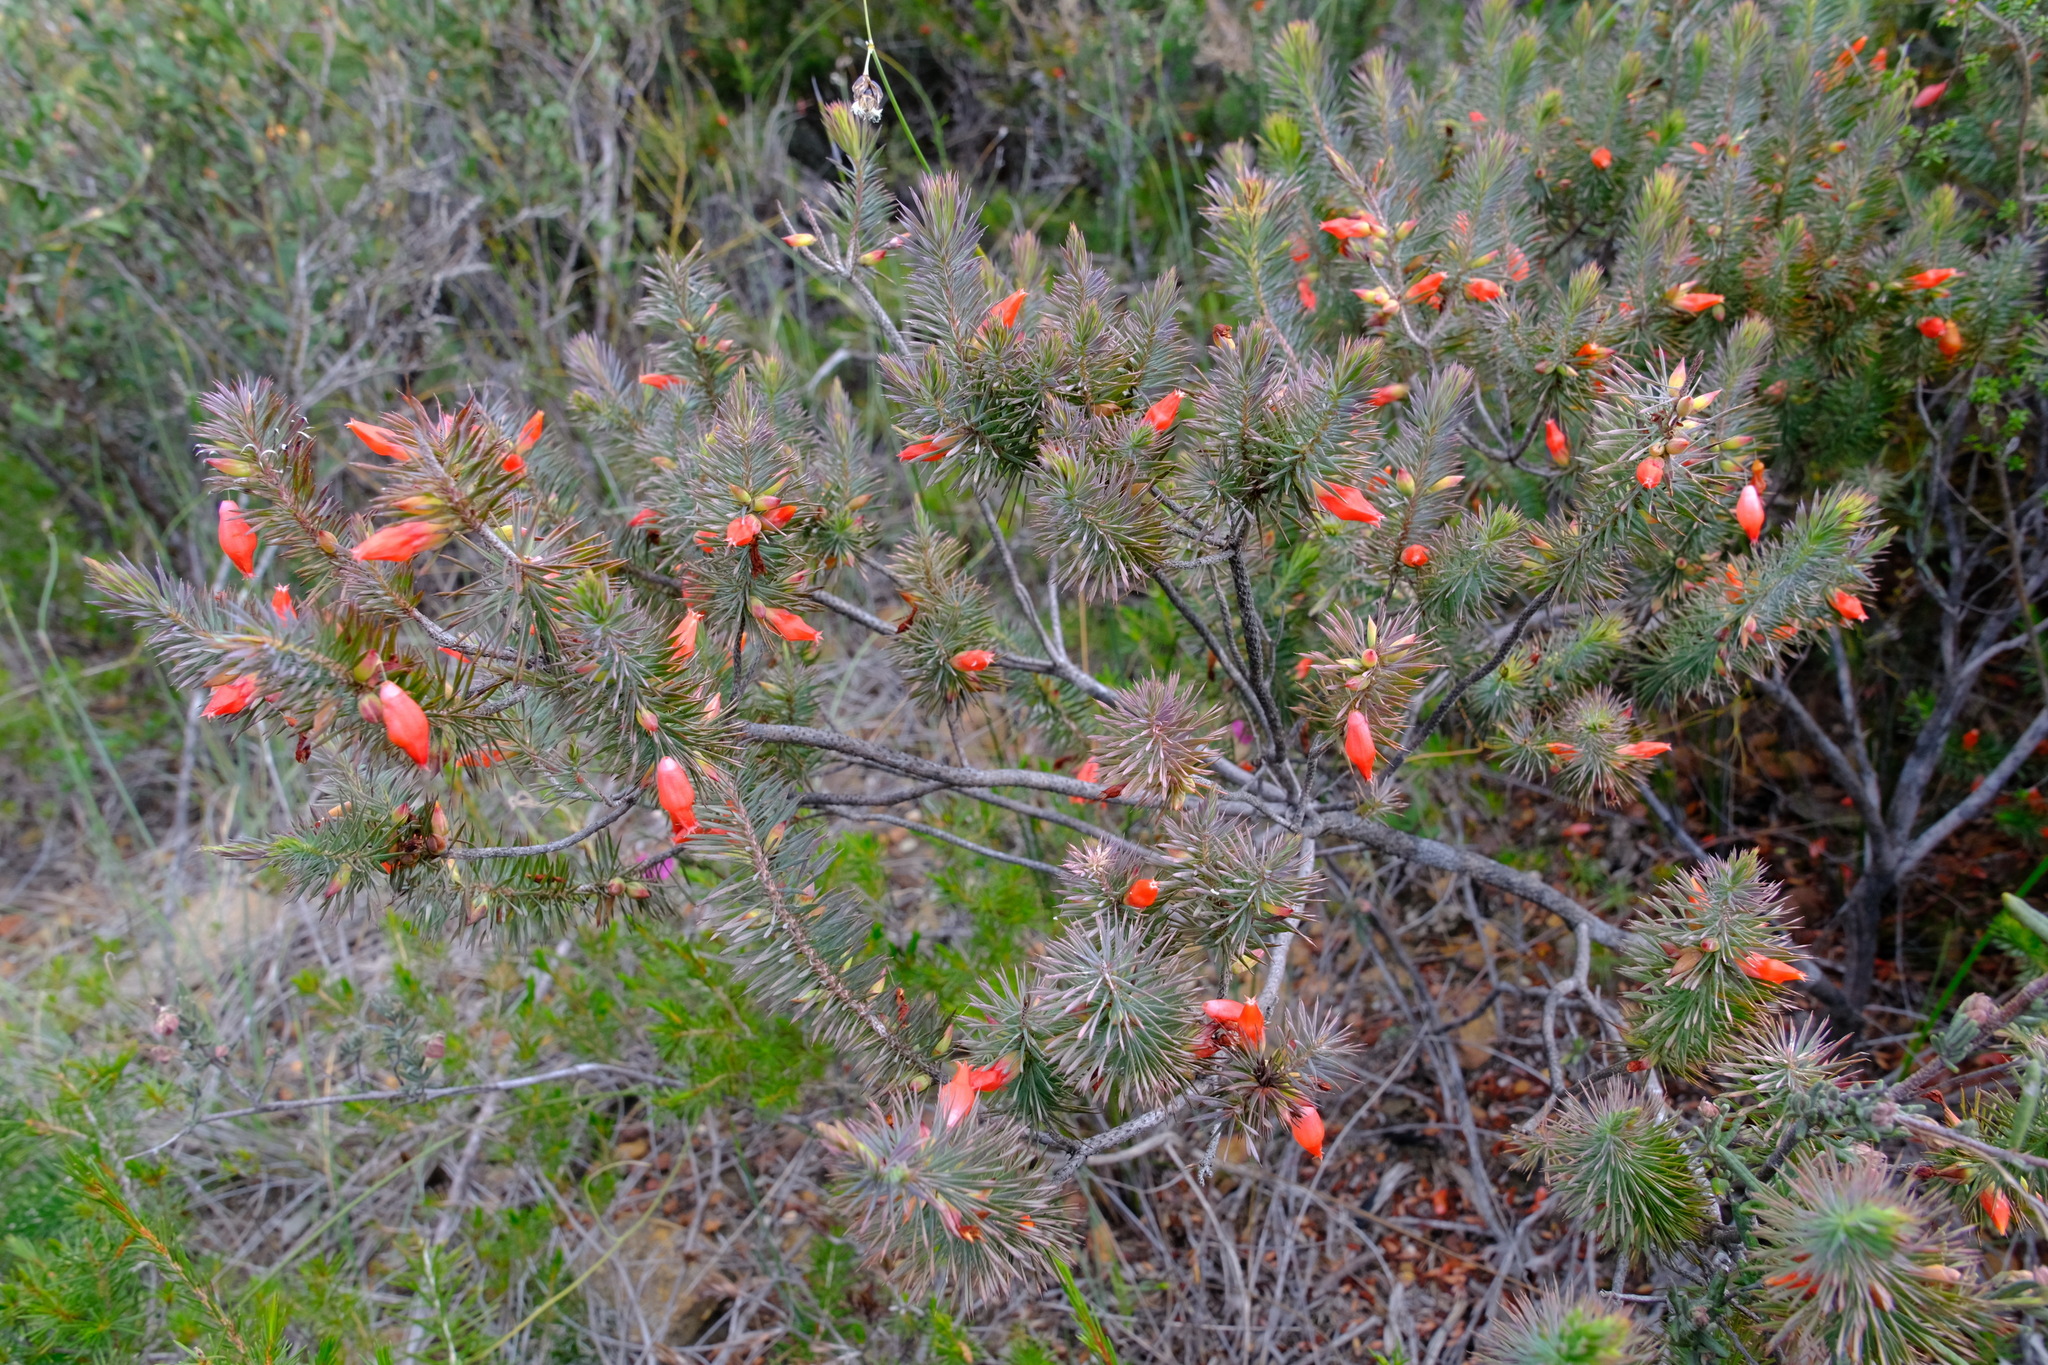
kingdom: Plantae
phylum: Tracheophyta
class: Magnoliopsida
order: Ericales
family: Ericaceae
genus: Styphelia
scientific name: Styphelia tortifolia
